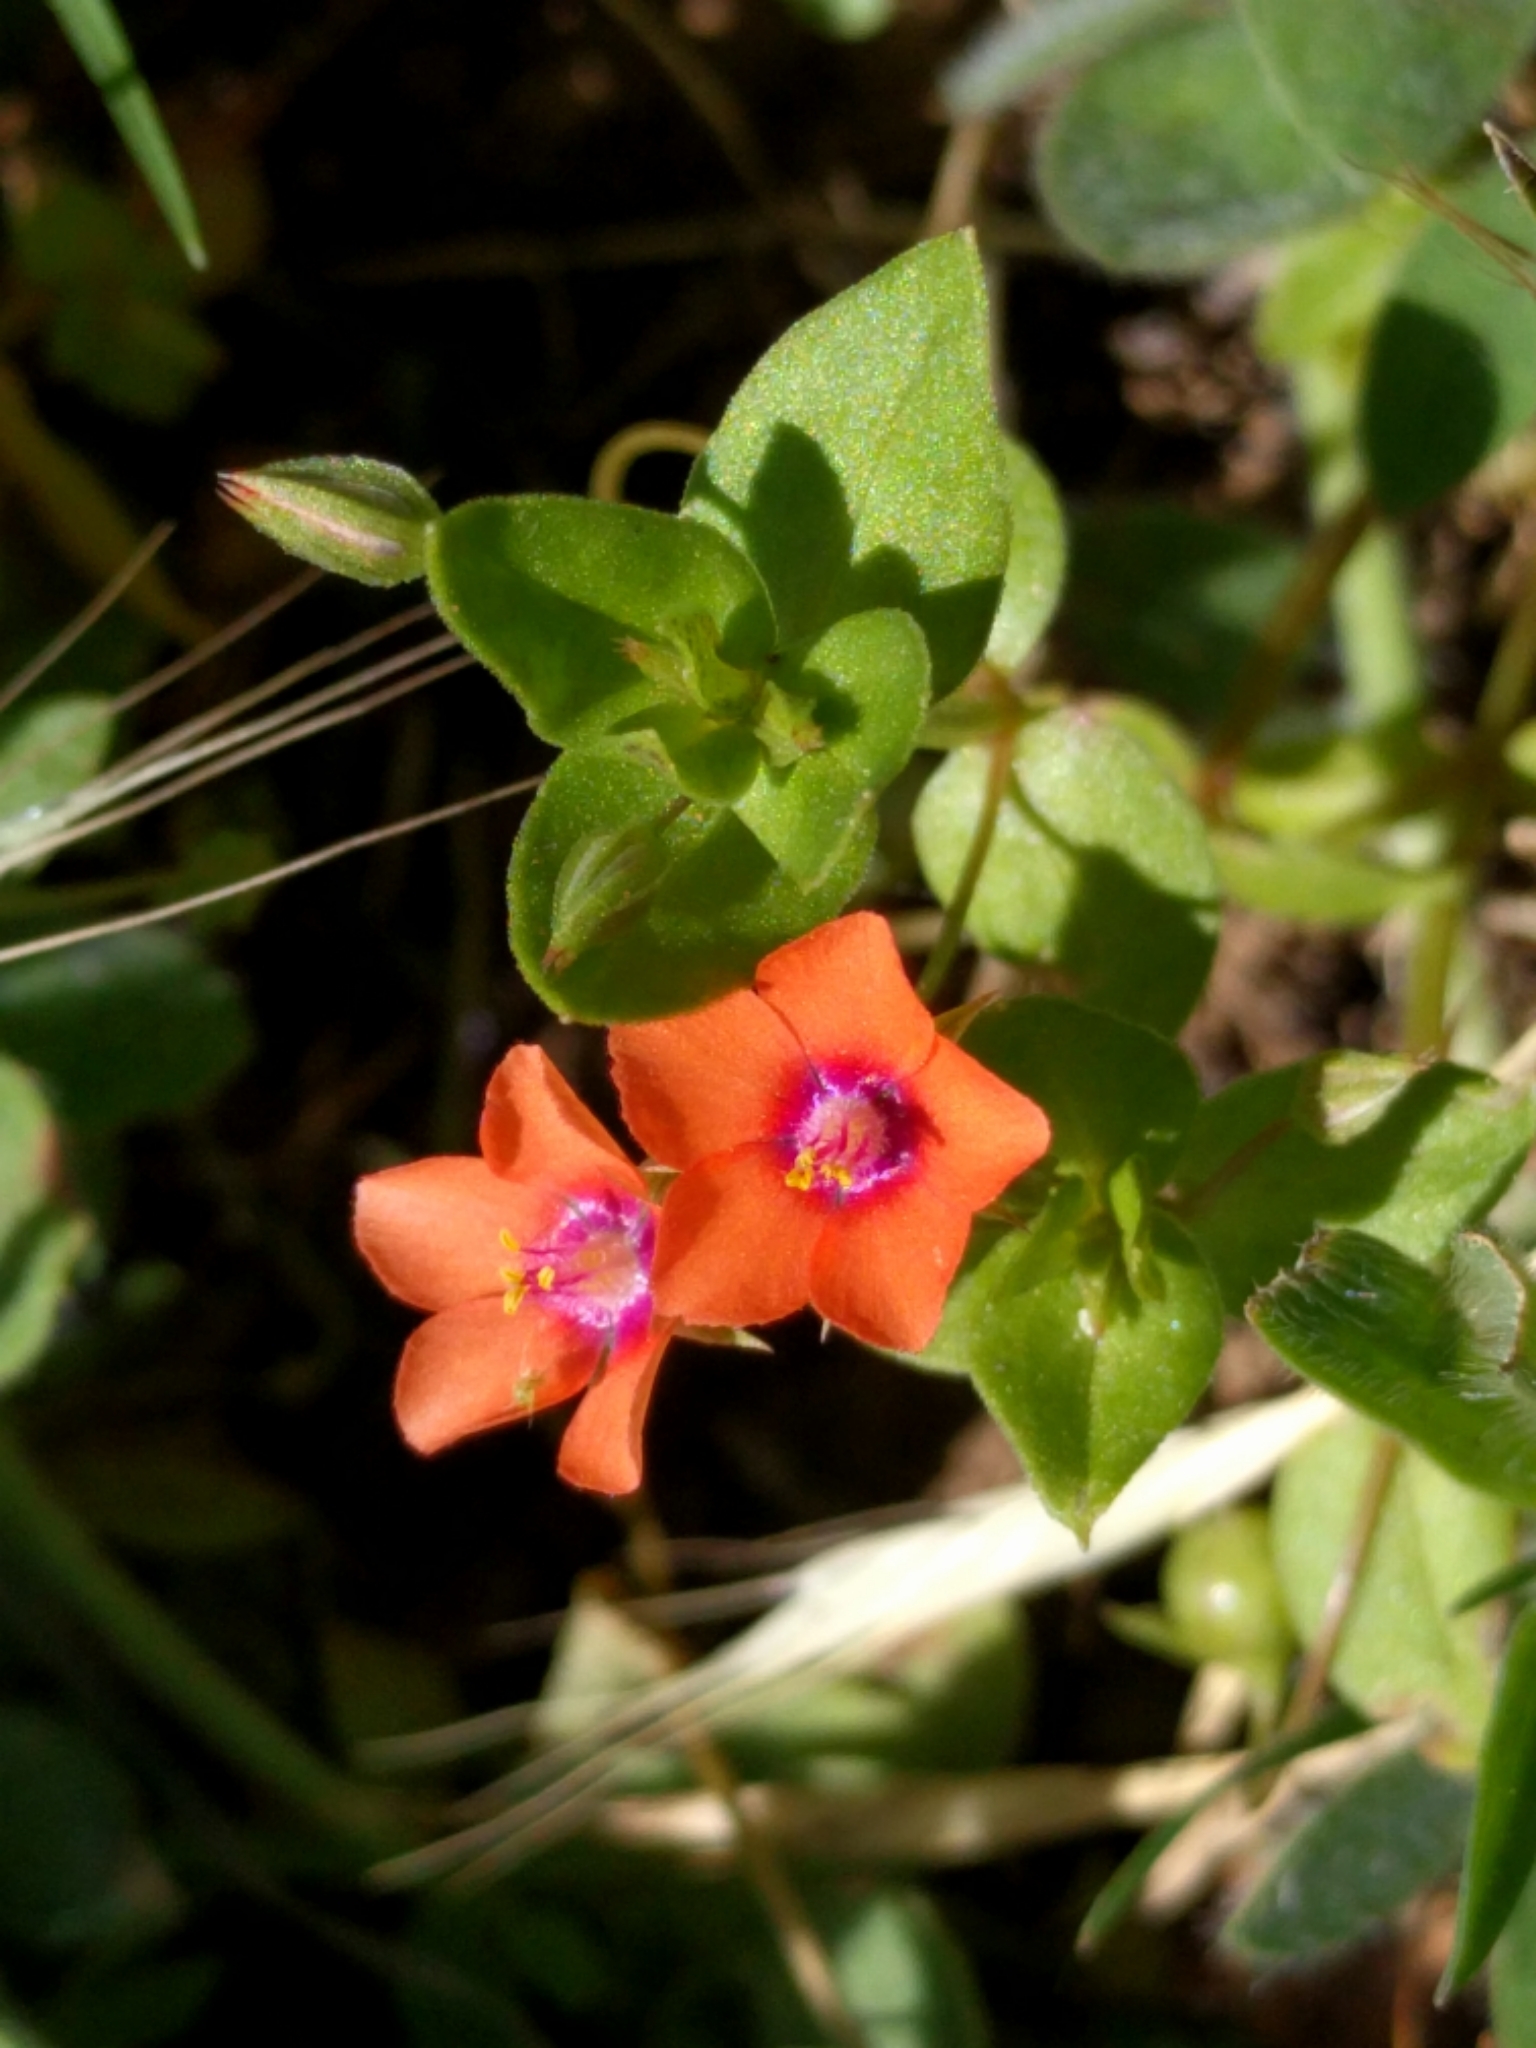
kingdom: Plantae
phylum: Tracheophyta
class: Magnoliopsida
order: Ericales
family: Primulaceae
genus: Lysimachia
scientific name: Lysimachia arvensis
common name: Scarlet pimpernel
